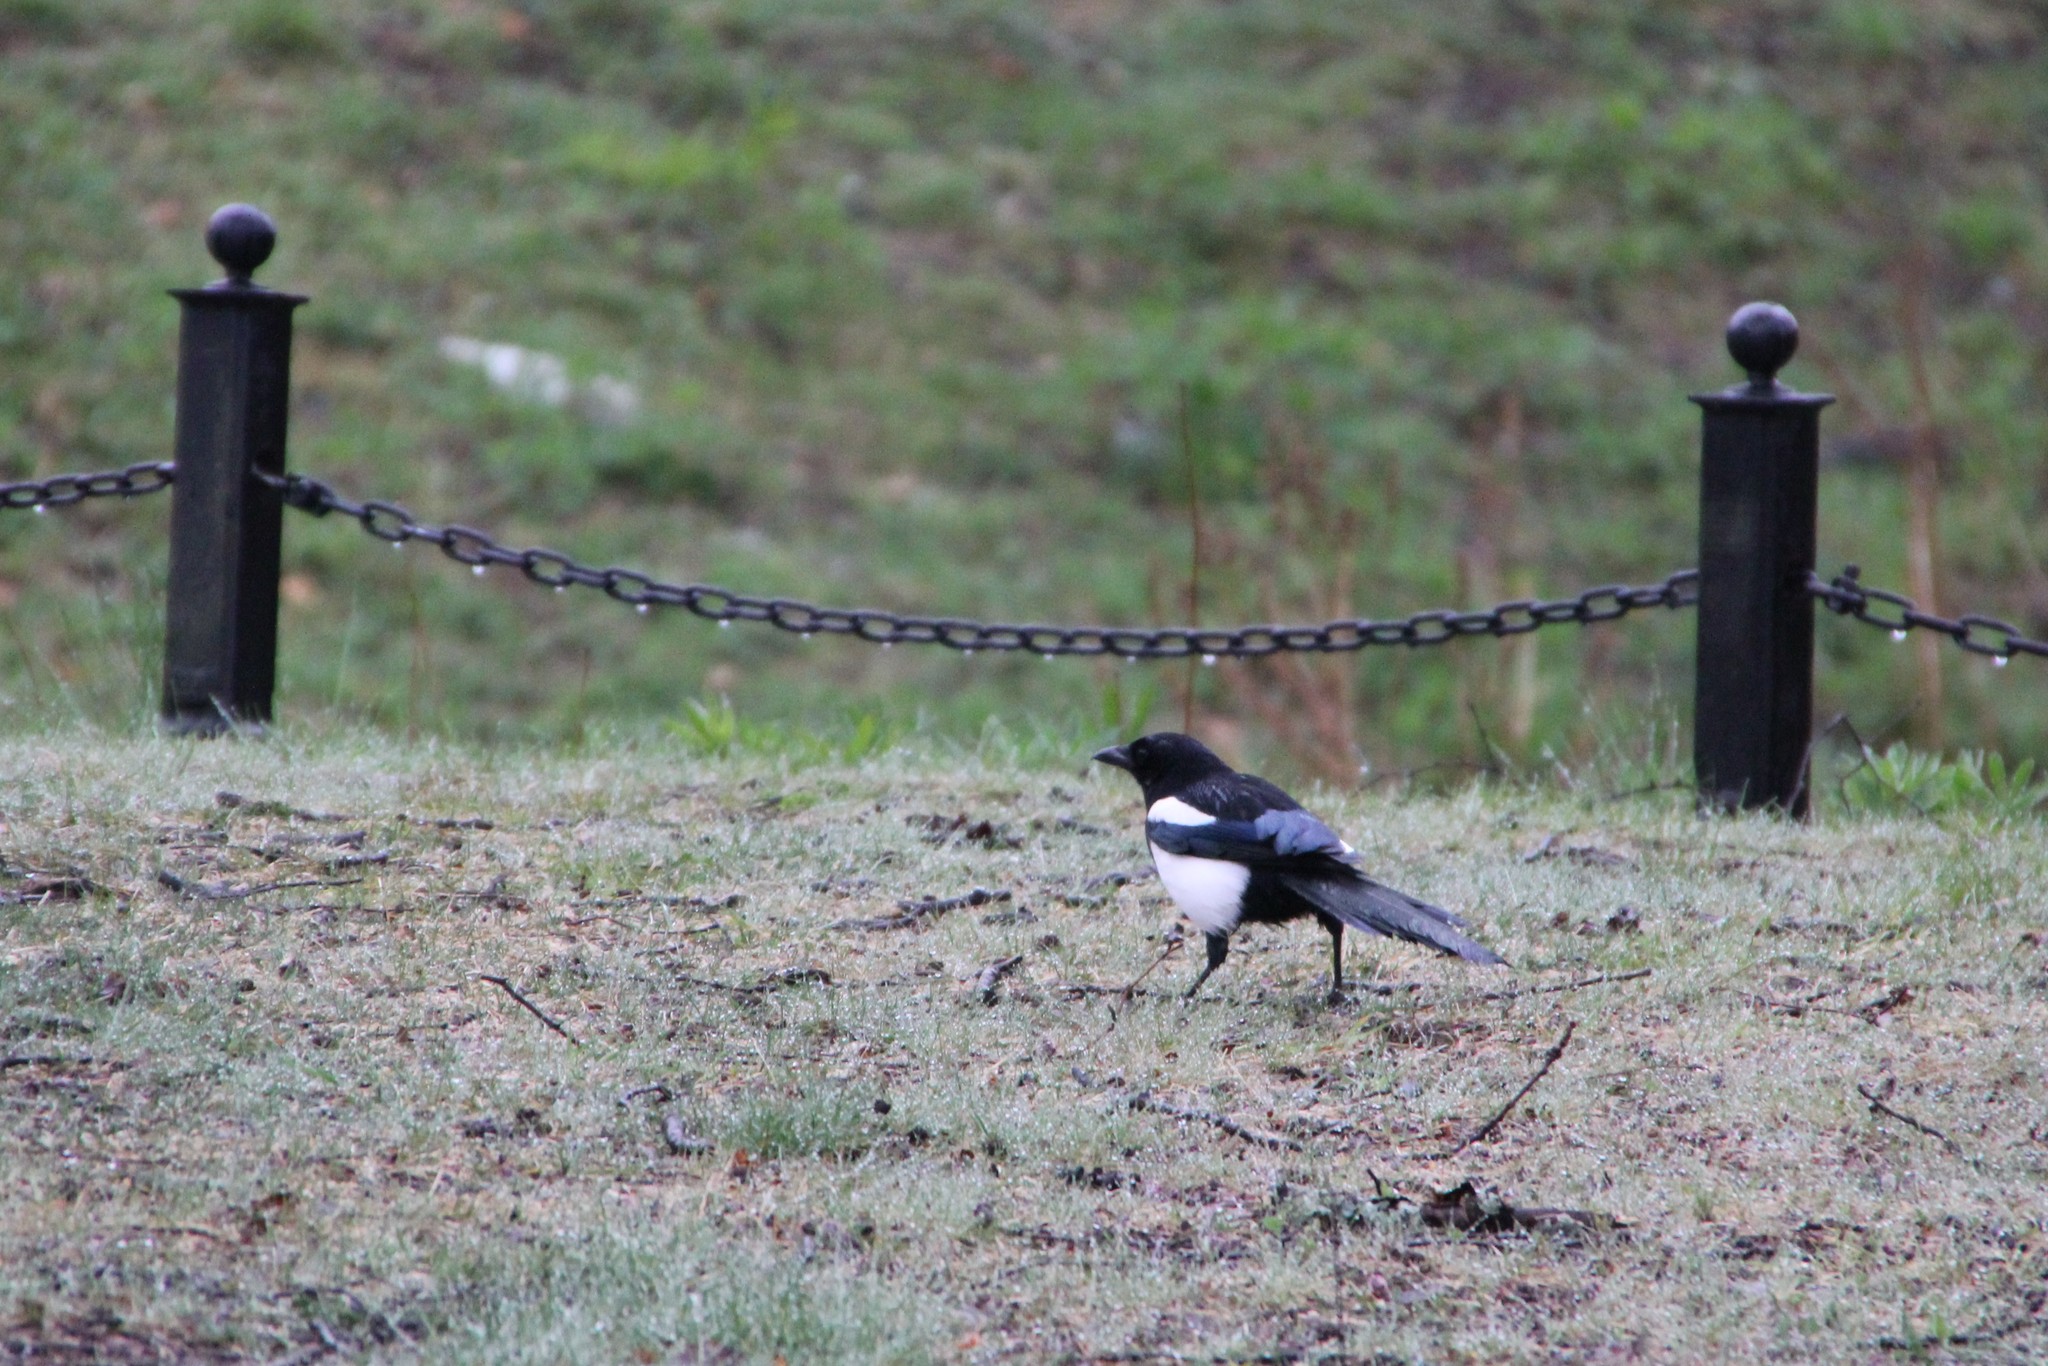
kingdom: Animalia
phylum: Chordata
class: Aves
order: Passeriformes
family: Corvidae
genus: Pica
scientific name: Pica pica
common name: Eurasian magpie
